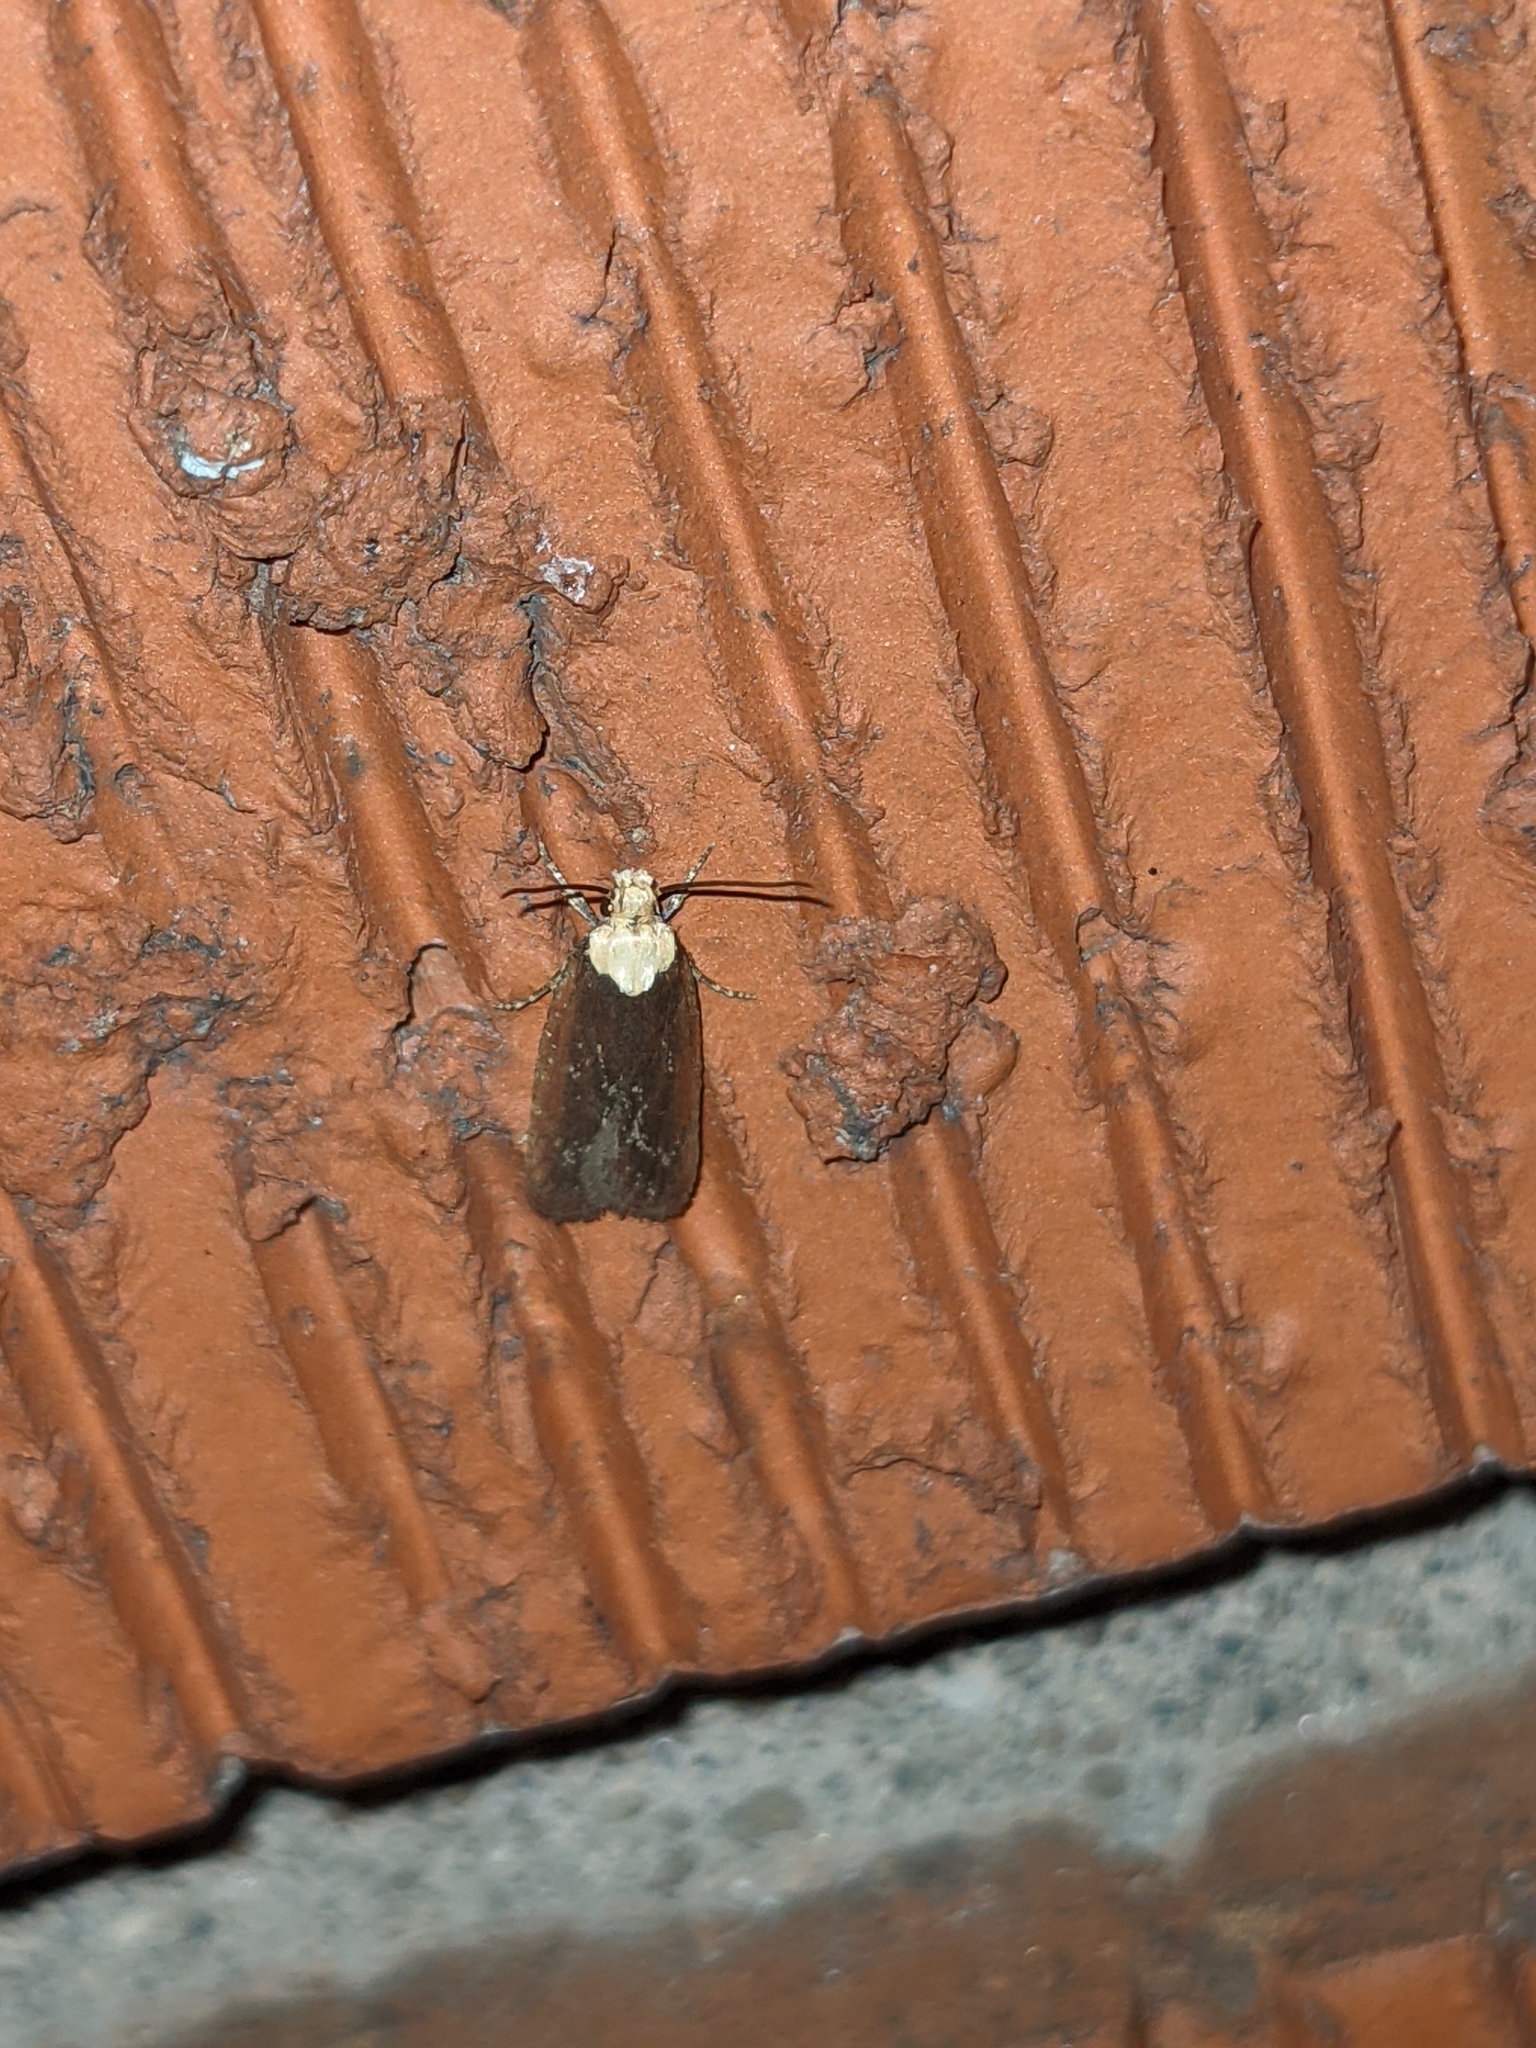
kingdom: Animalia
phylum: Arthropoda
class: Insecta
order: Lepidoptera
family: Depressariidae
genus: Depressaria
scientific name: Depressaria depressana
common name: Lost flat-body
